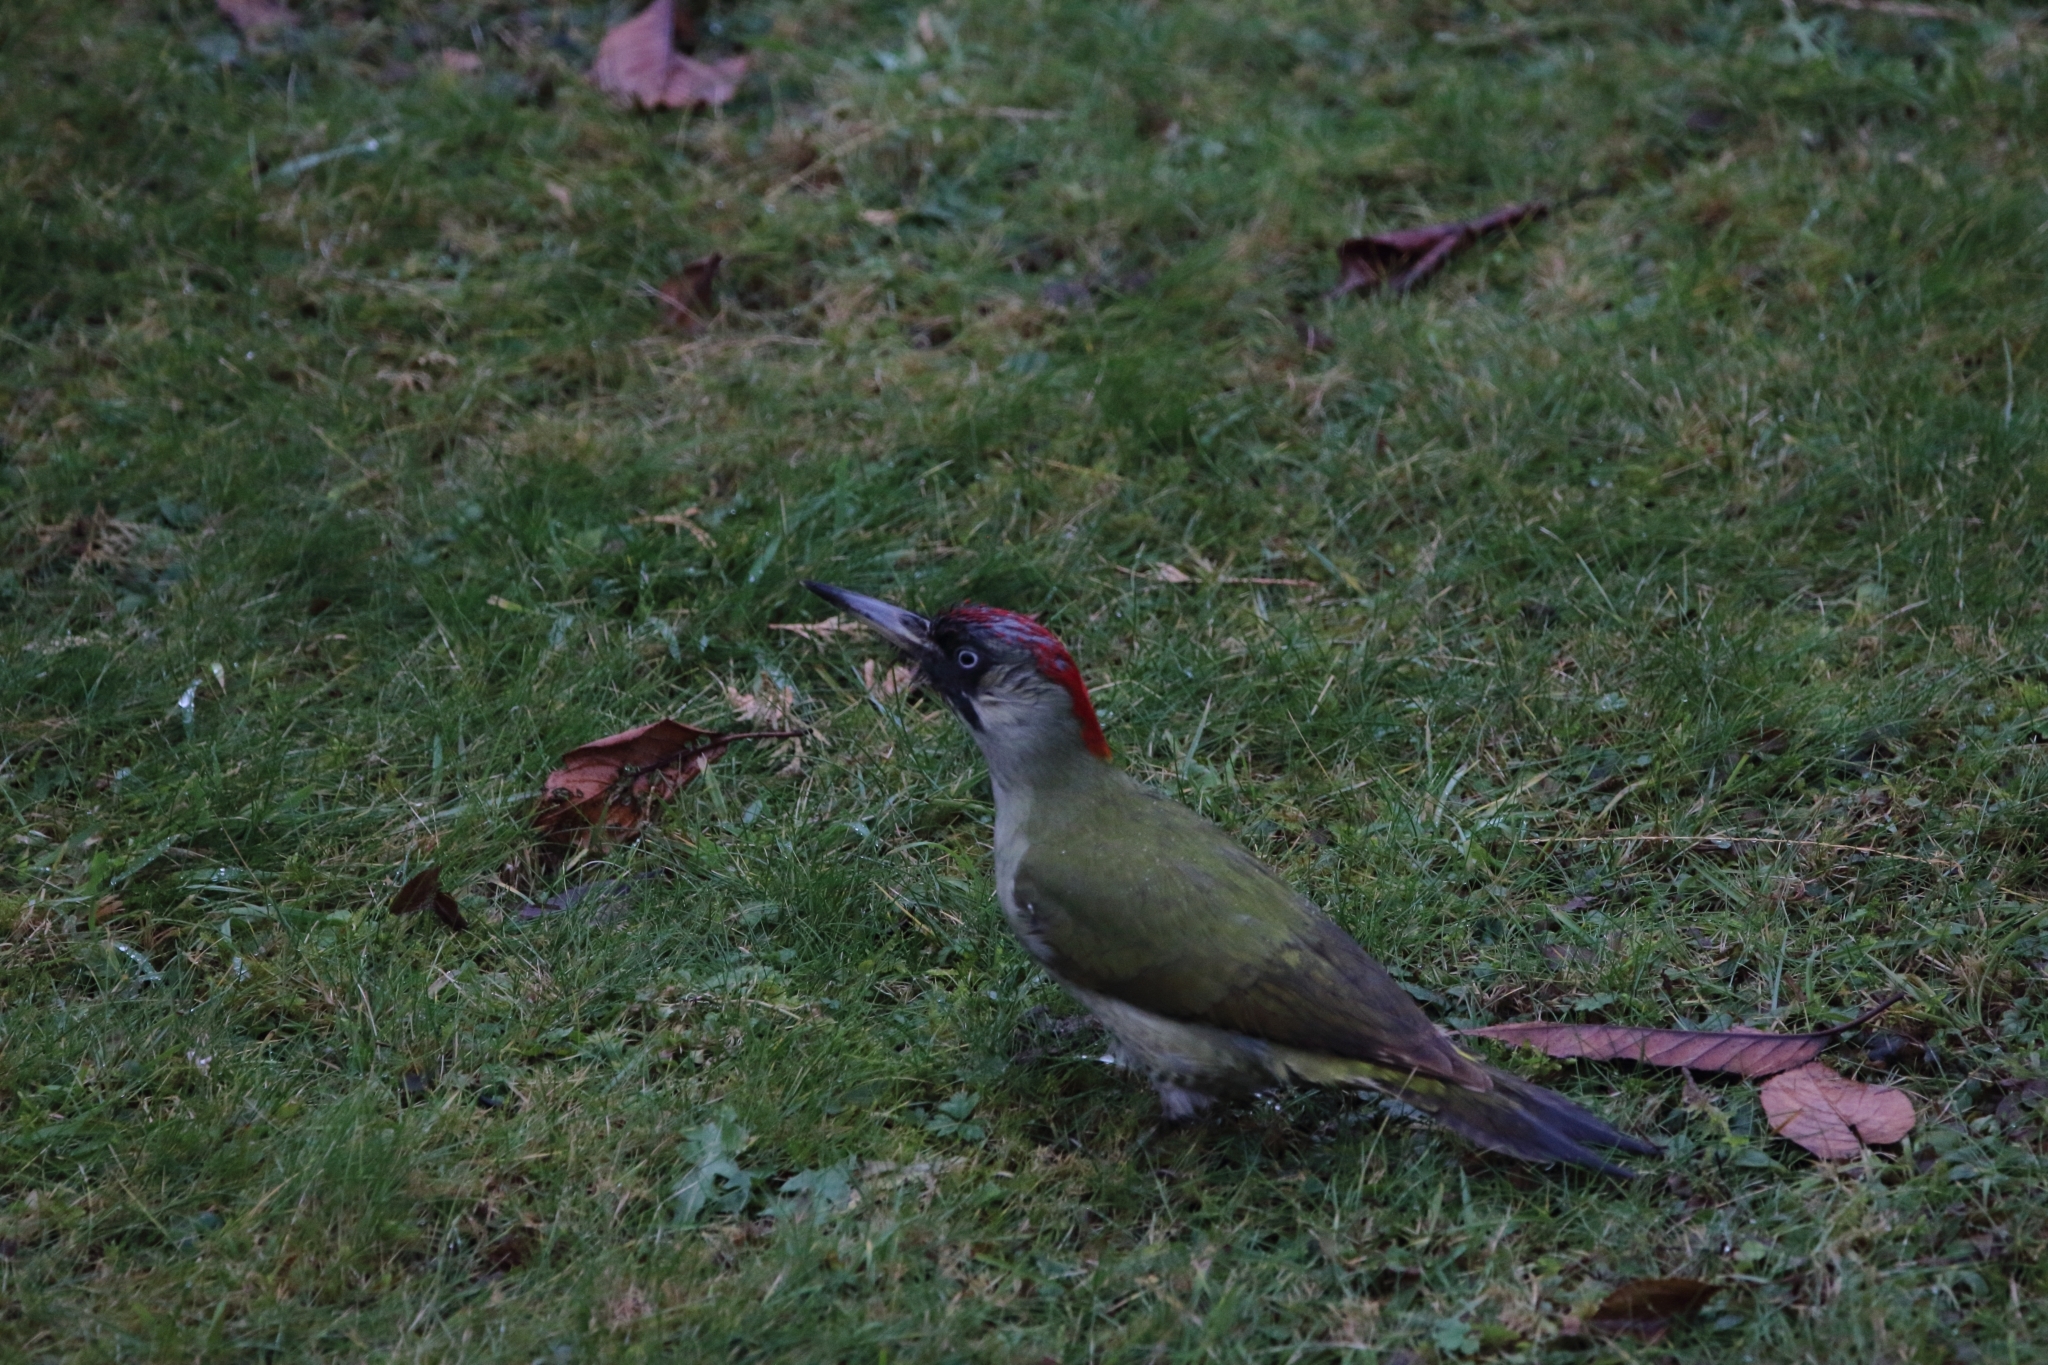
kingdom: Animalia
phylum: Chordata
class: Aves
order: Piciformes
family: Picidae
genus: Picus
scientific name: Picus viridis
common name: European green woodpecker
